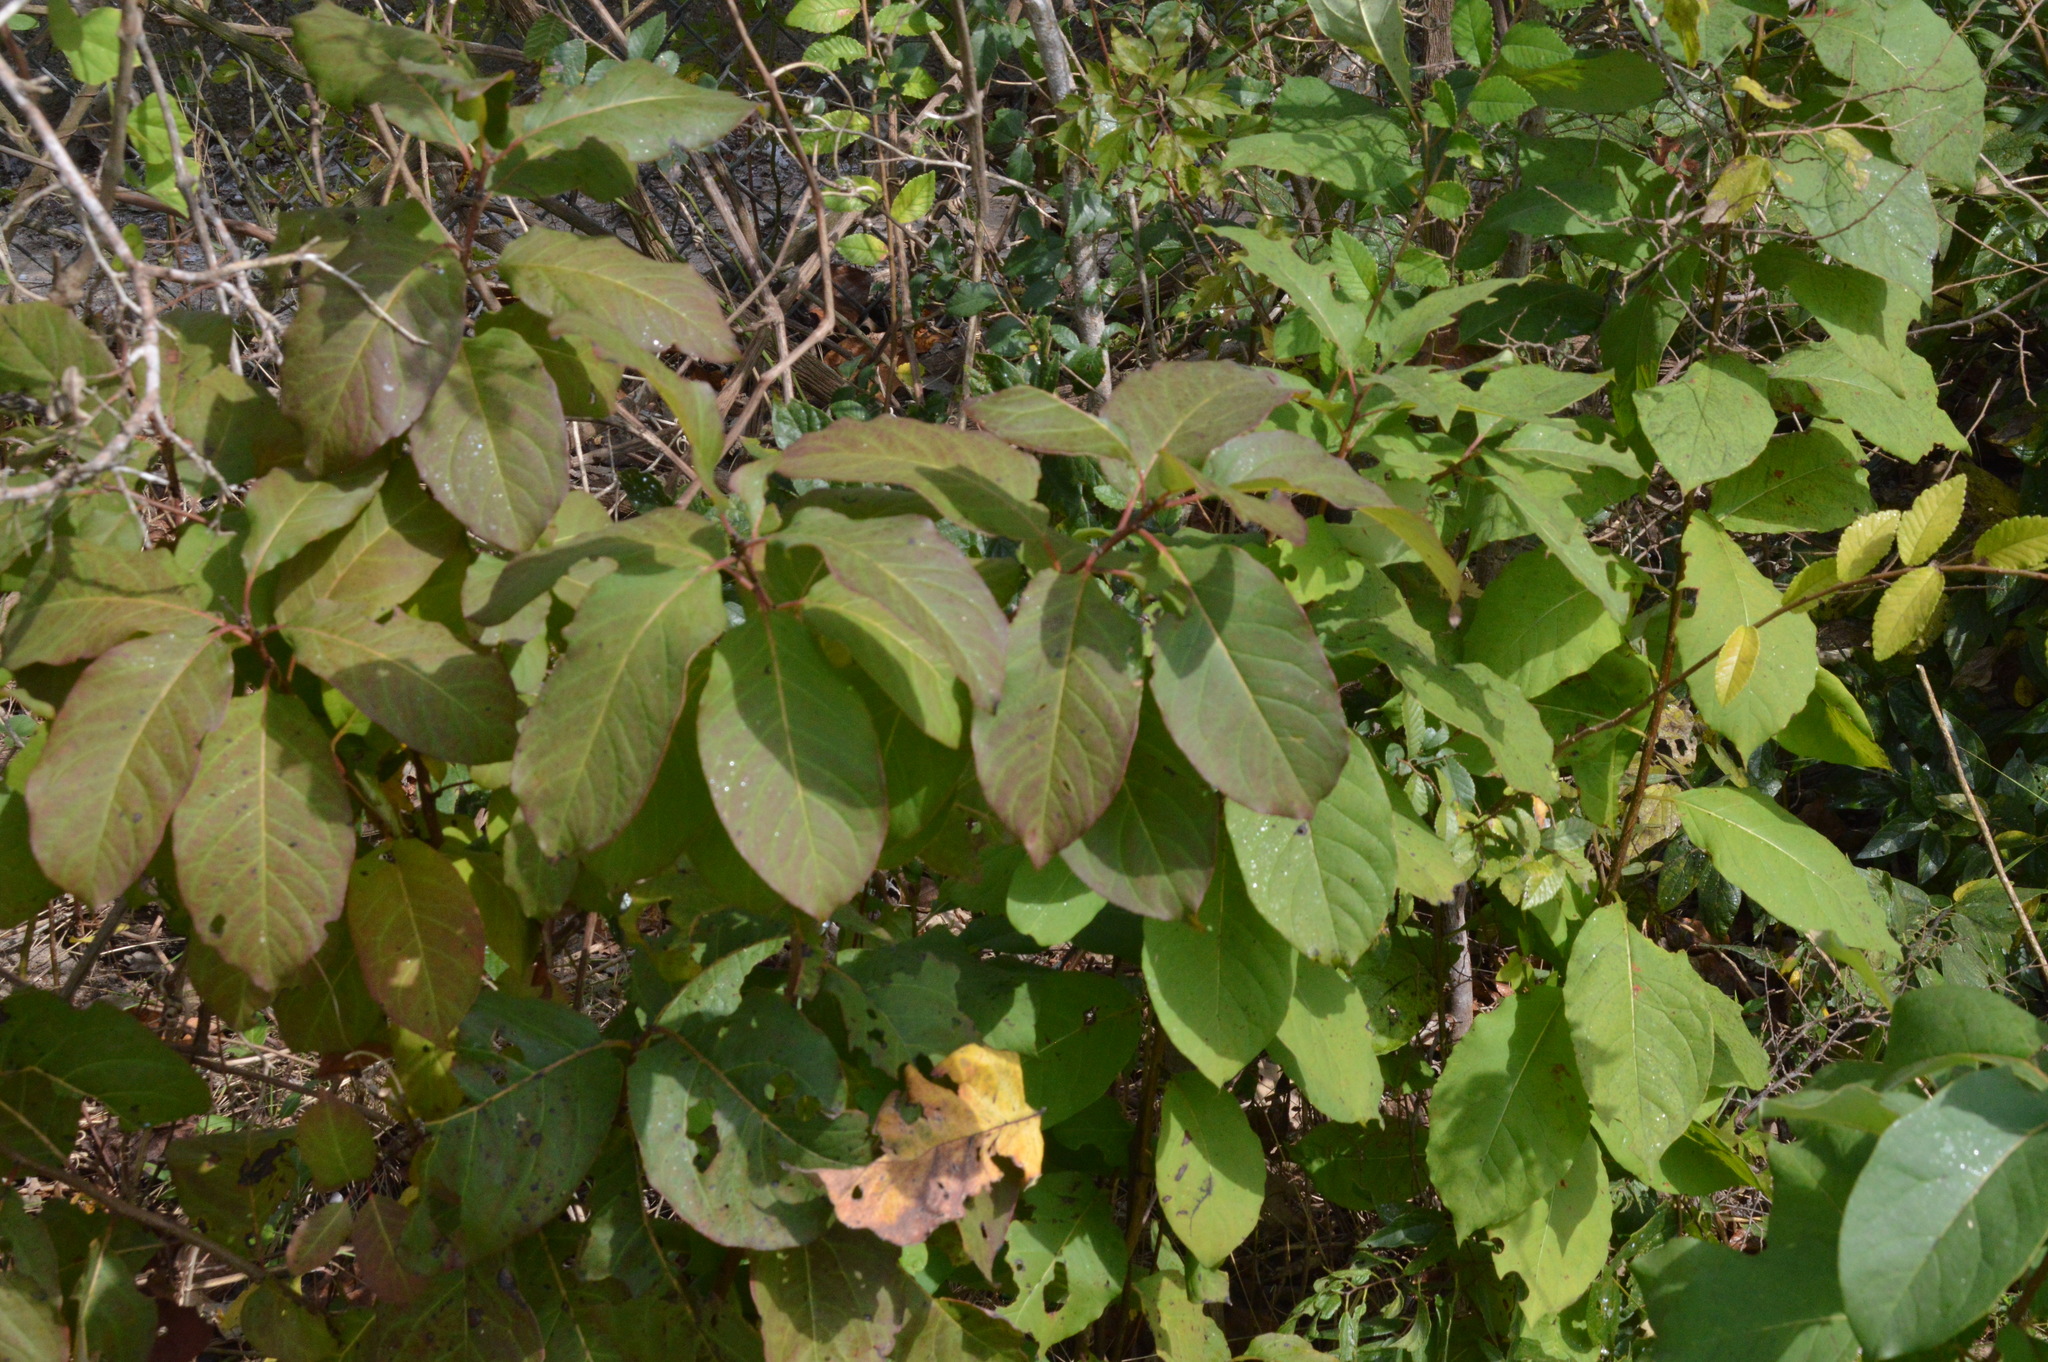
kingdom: Plantae
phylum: Tracheophyta
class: Magnoliopsida
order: Ericales
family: Ebenaceae
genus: Diospyros
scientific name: Diospyros virginiana
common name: Persimmon
